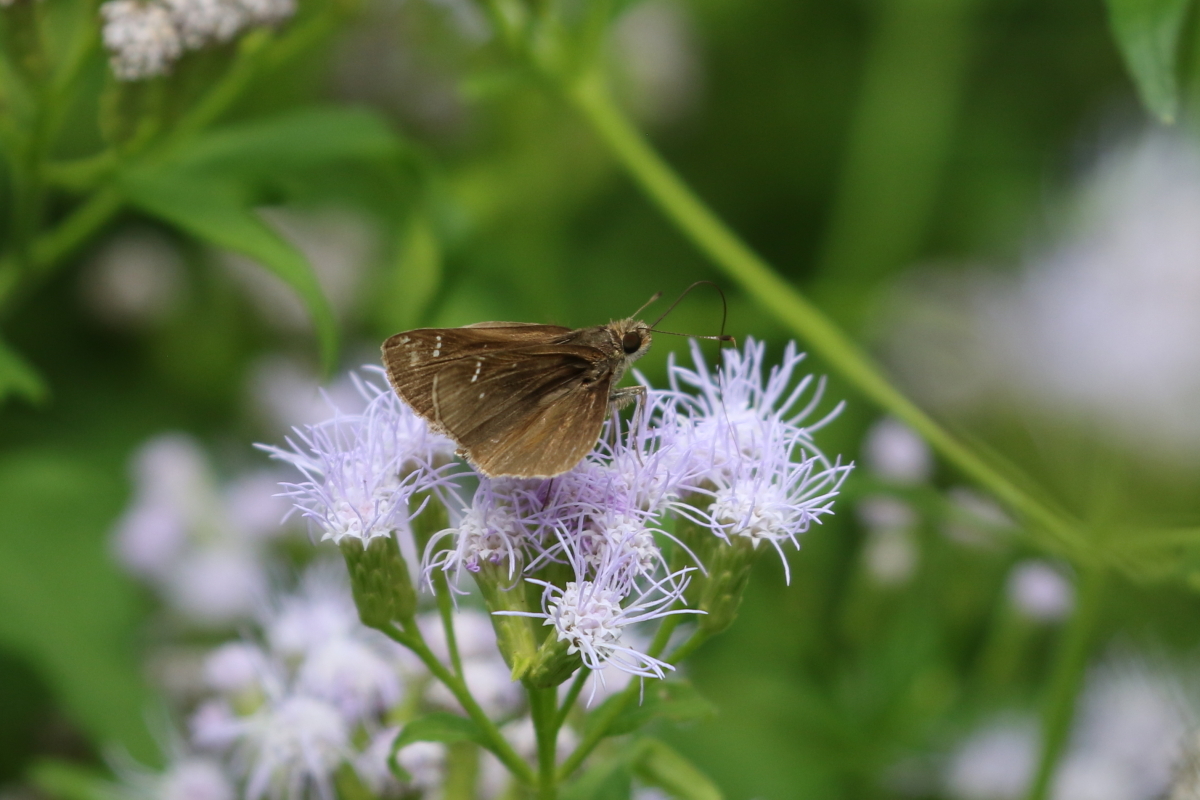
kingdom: Animalia
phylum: Arthropoda
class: Insecta
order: Lepidoptera
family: Hesperiidae
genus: Lerema
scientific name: Lerema accius
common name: Clouded skipper
